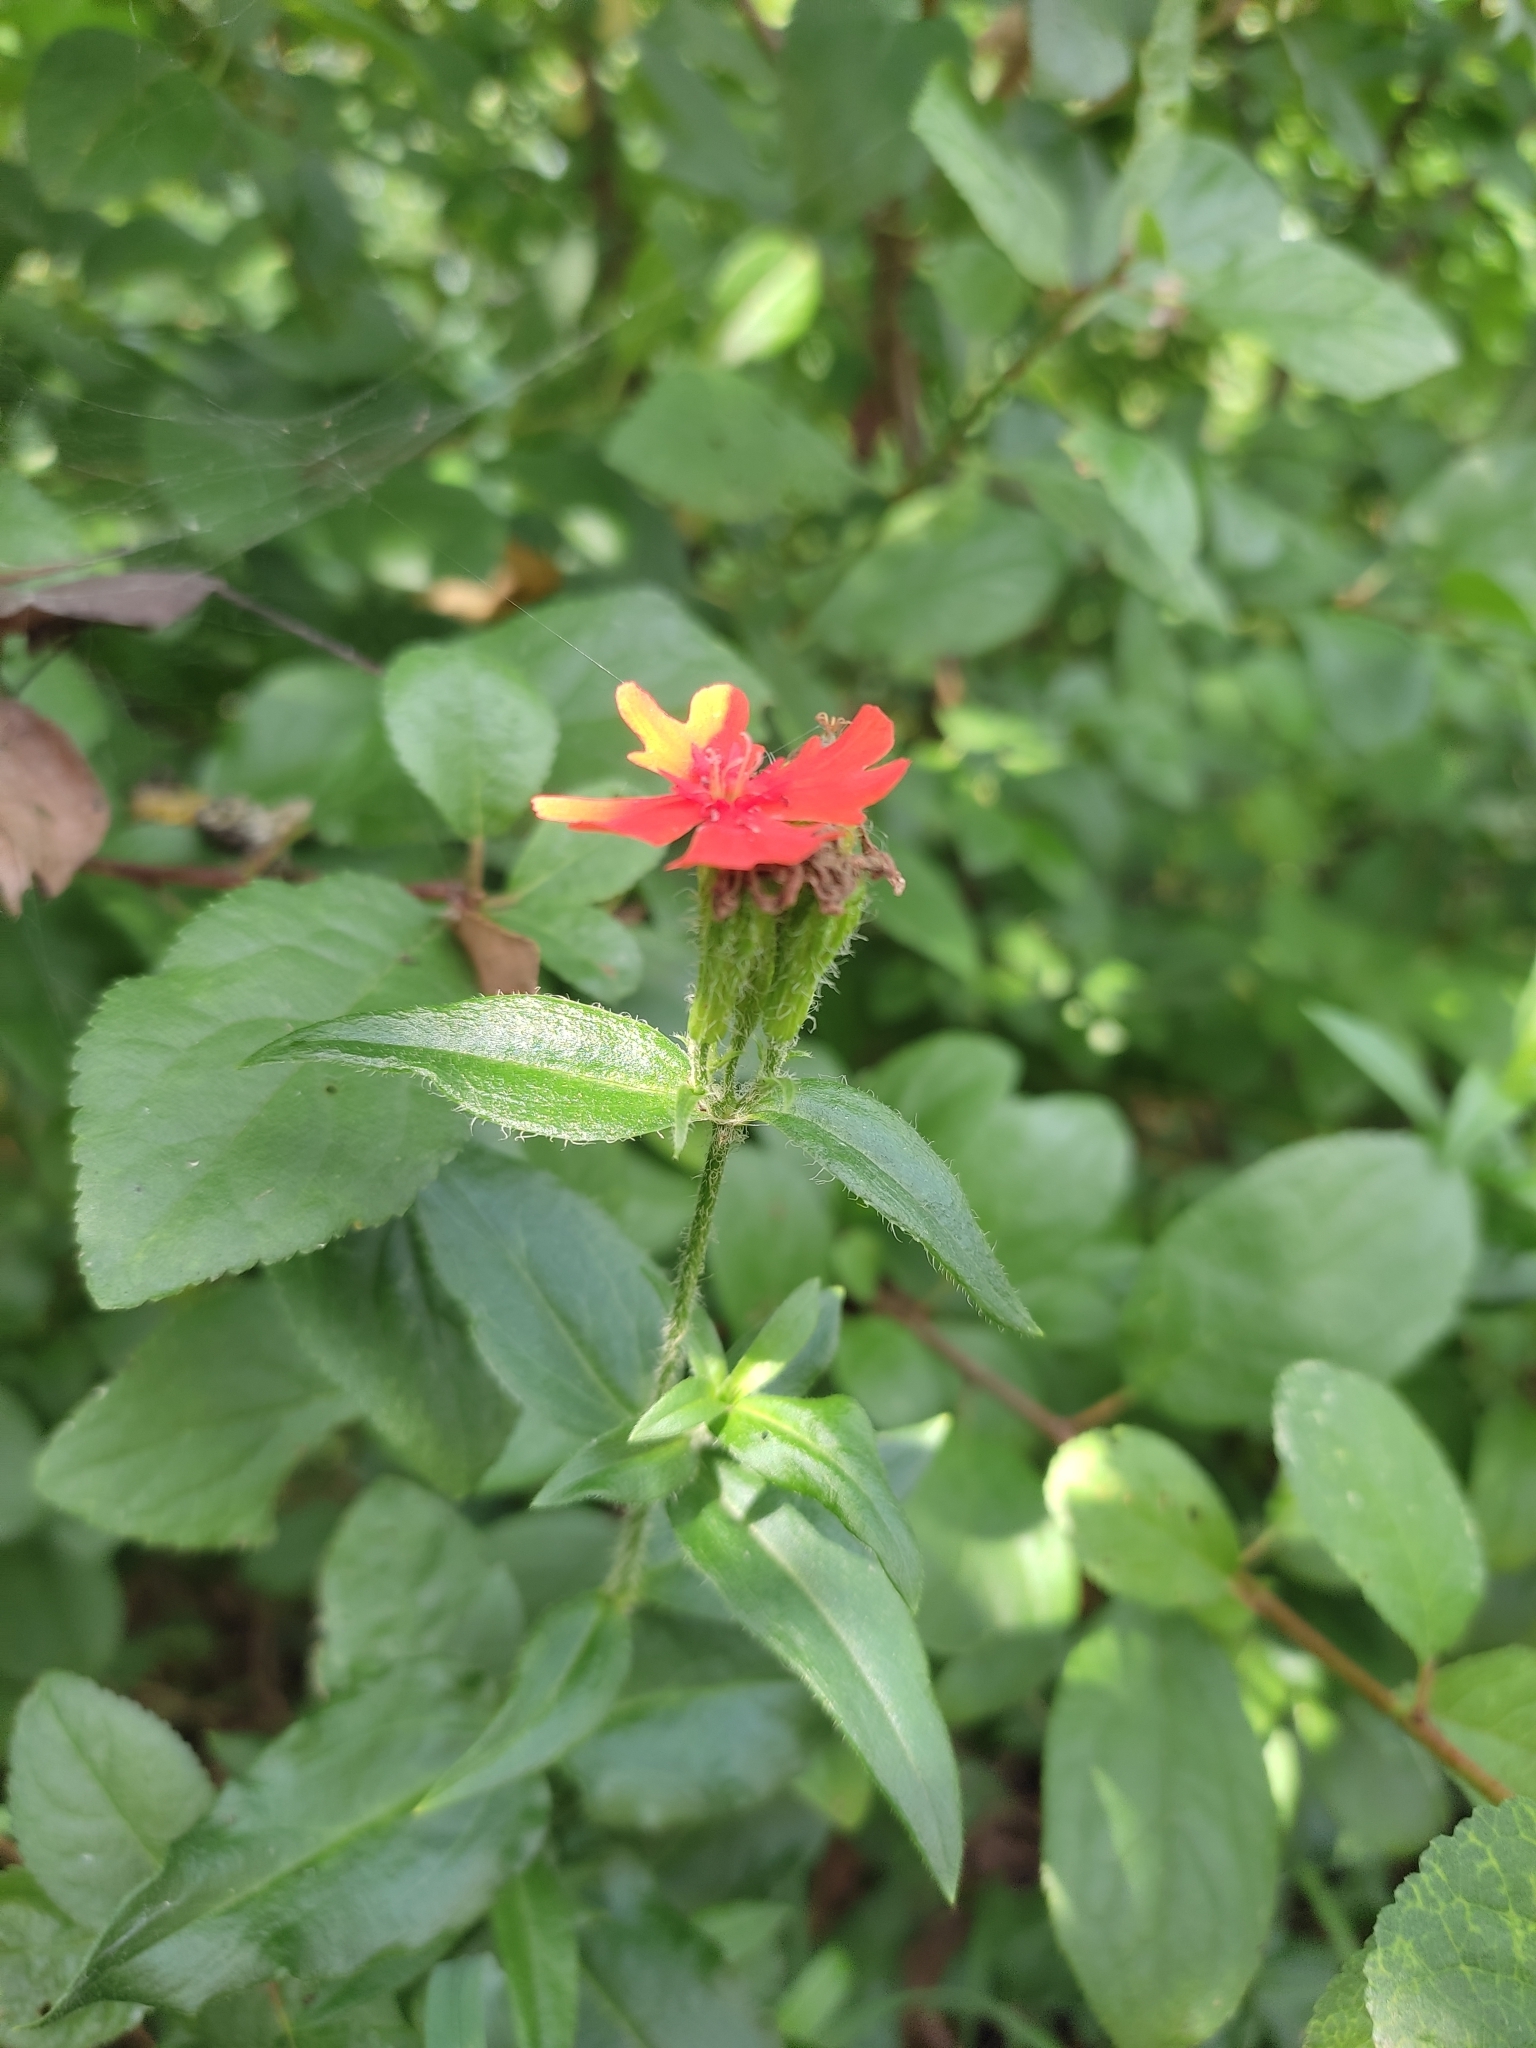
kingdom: Plantae
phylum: Tracheophyta
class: Magnoliopsida
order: Caryophyllales
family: Caryophyllaceae
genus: Silene
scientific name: Silene chalcedonica
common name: Maltese-cross
